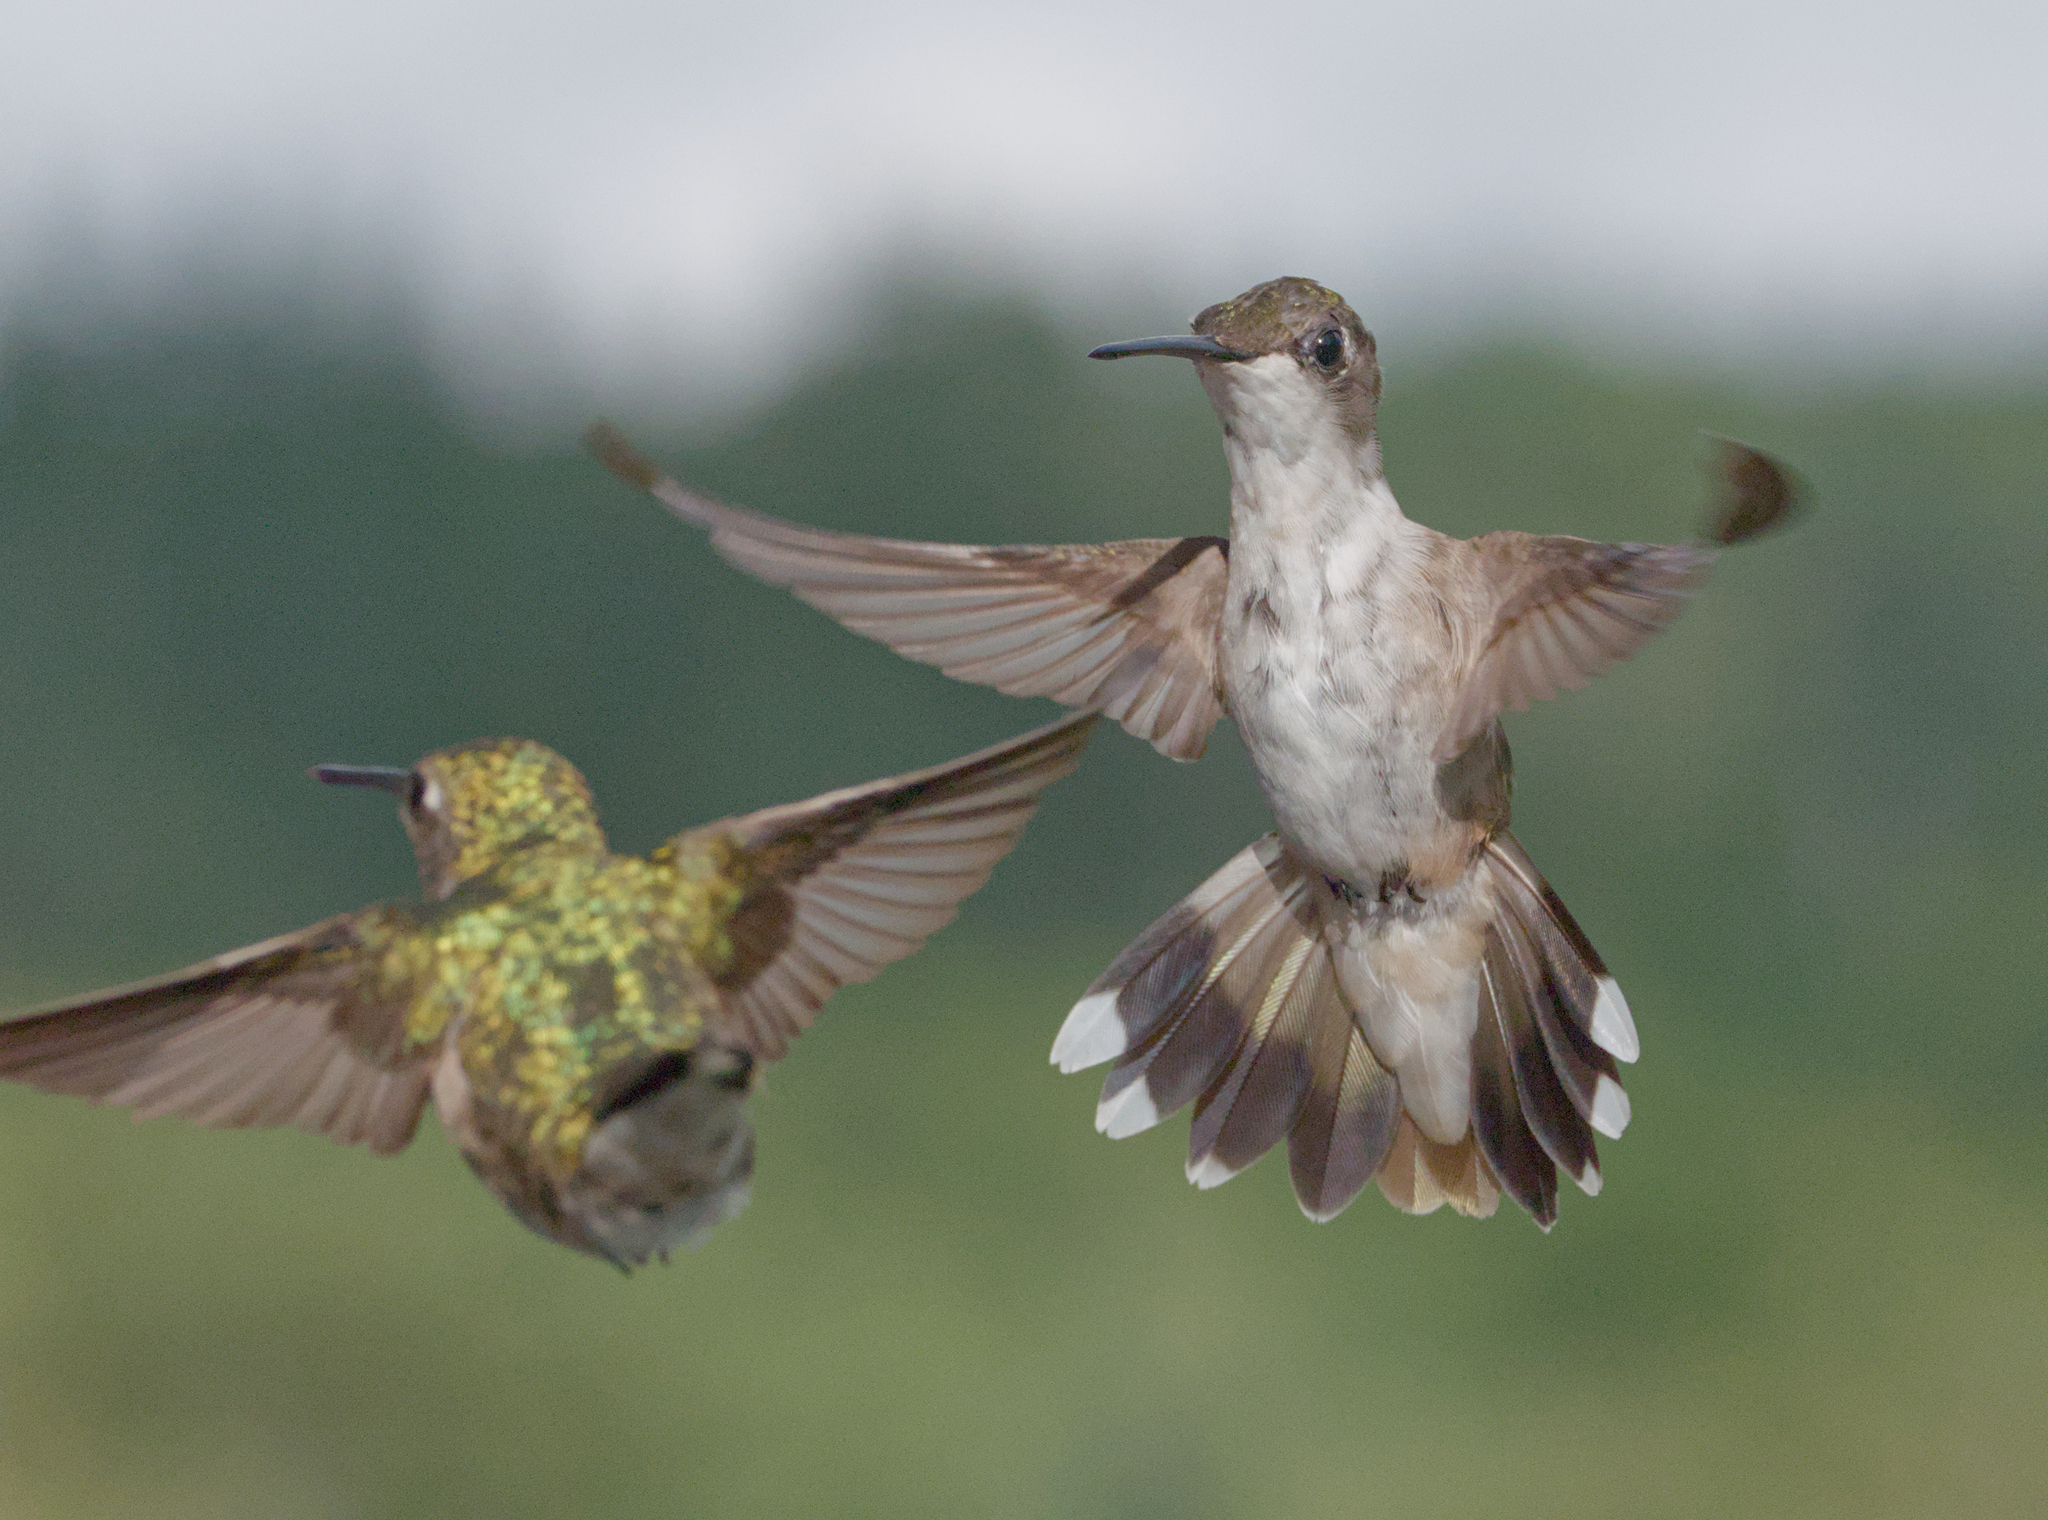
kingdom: Animalia
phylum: Chordata
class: Aves
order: Apodiformes
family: Trochilidae
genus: Archilochus
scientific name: Archilochus colubris
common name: Ruby-throated hummingbird
